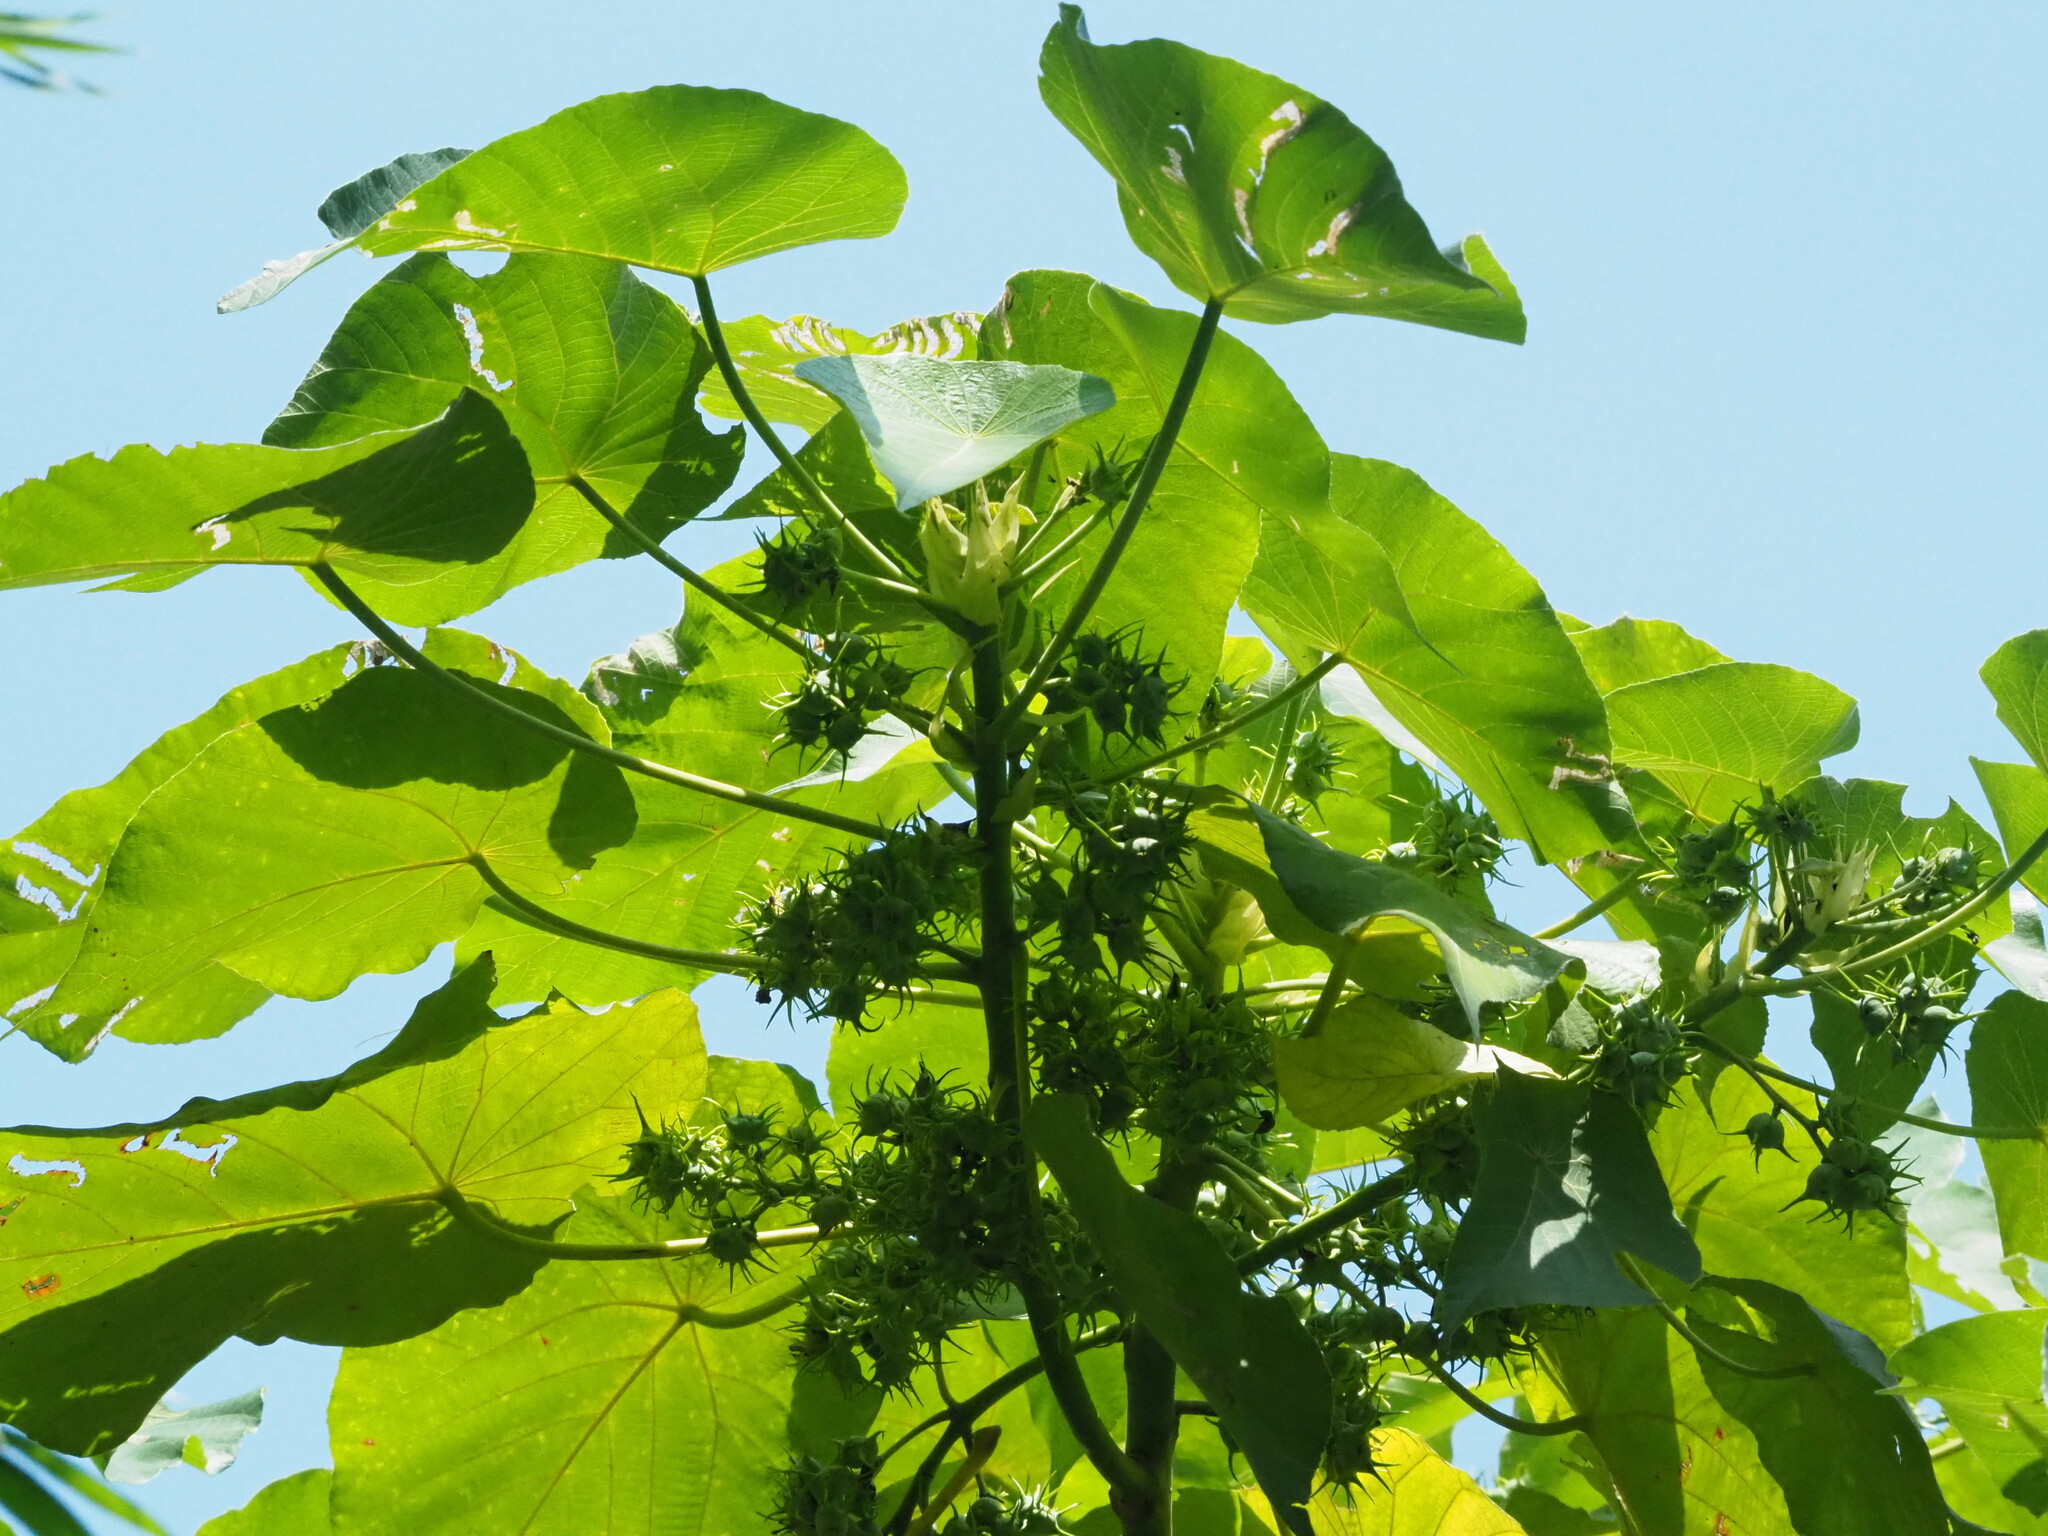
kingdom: Plantae
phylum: Tracheophyta
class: Magnoliopsida
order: Malpighiales
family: Euphorbiaceae
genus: Macaranga
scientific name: Macaranga tanarius
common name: Parasol leaf tree
